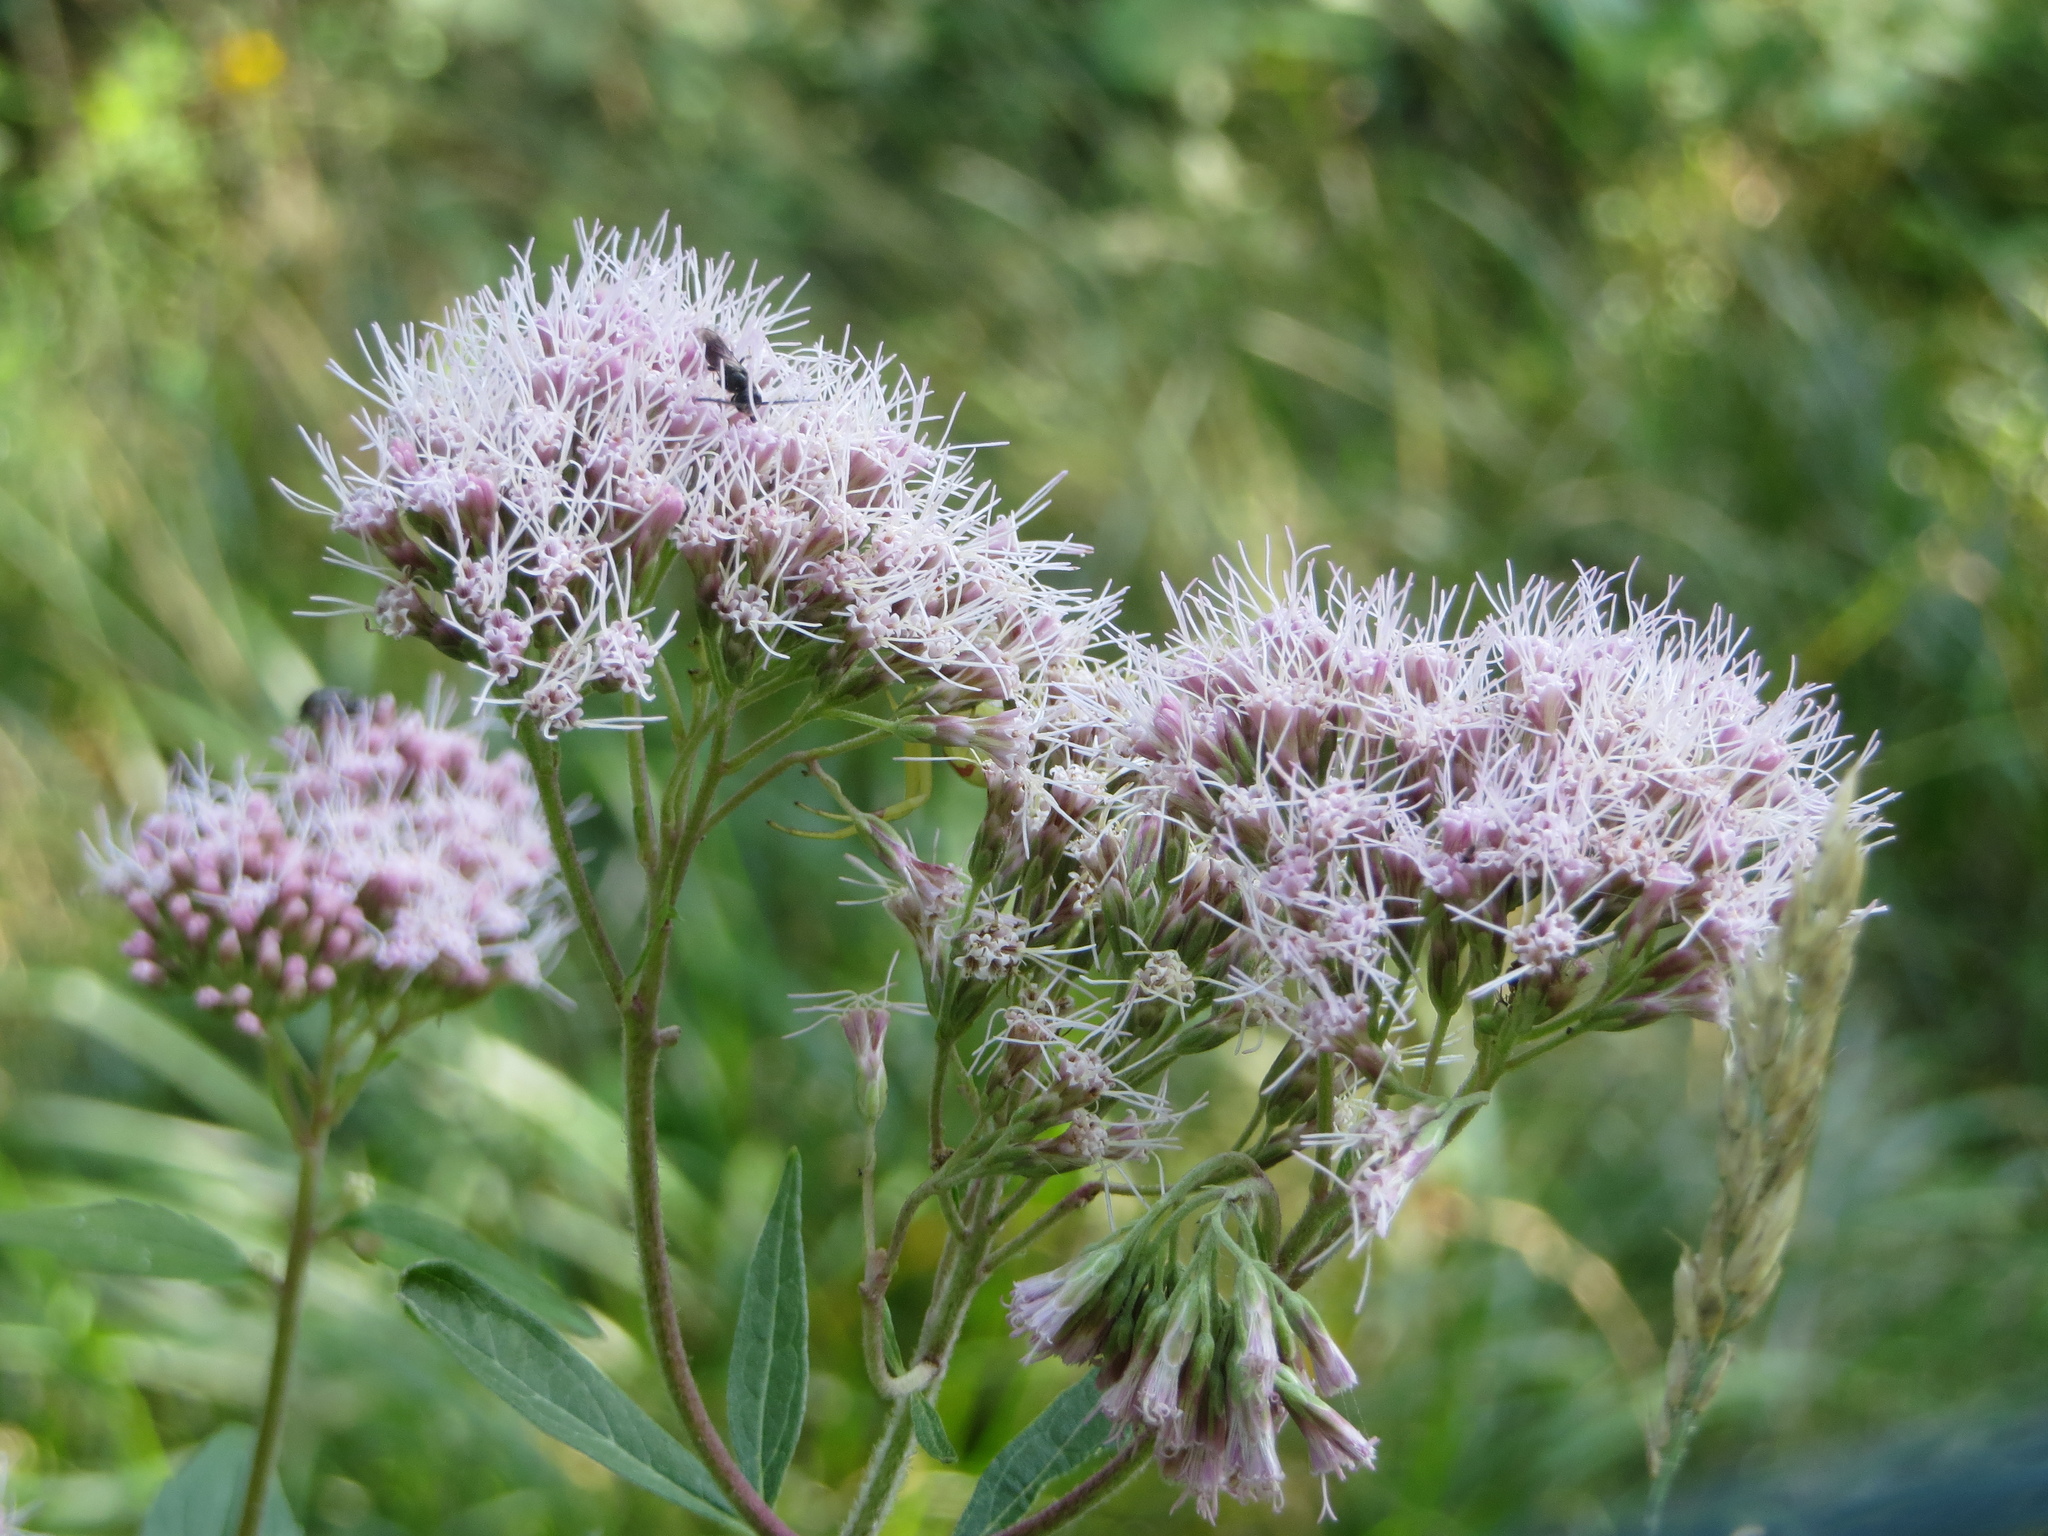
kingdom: Plantae
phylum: Tracheophyta
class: Magnoliopsida
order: Asterales
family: Asteraceae
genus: Eupatorium
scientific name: Eupatorium cannabinum
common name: Hemp-agrimony
